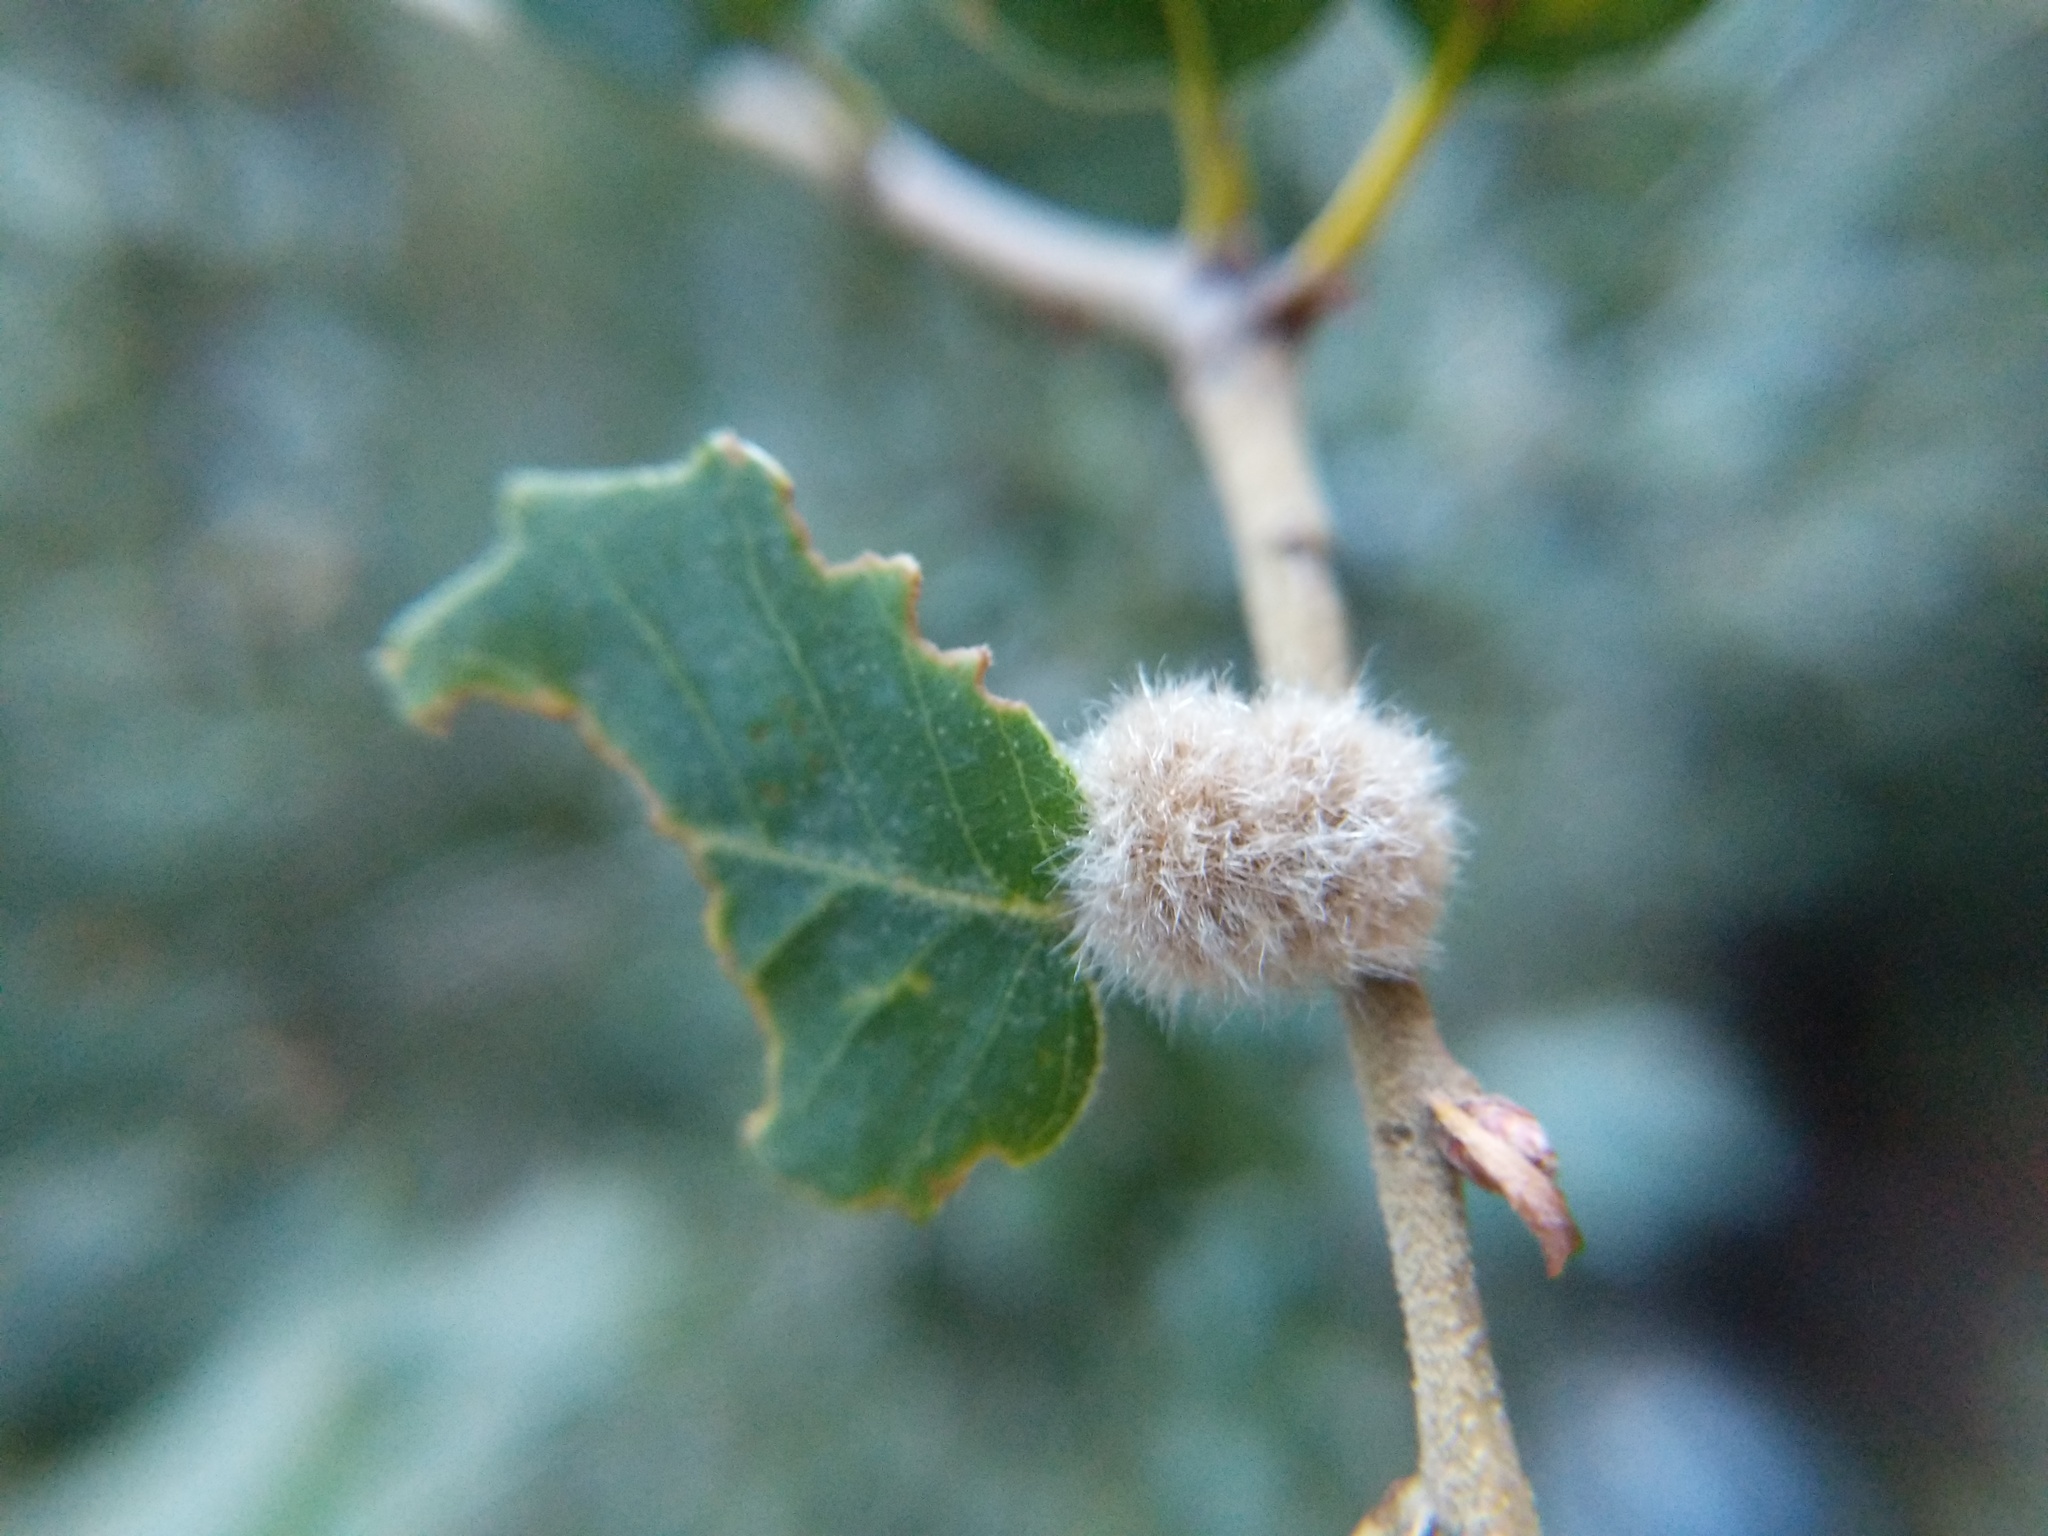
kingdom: Animalia
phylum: Arthropoda
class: Insecta
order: Hymenoptera
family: Cynipidae
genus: Disholandricus
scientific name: Disholandricus
